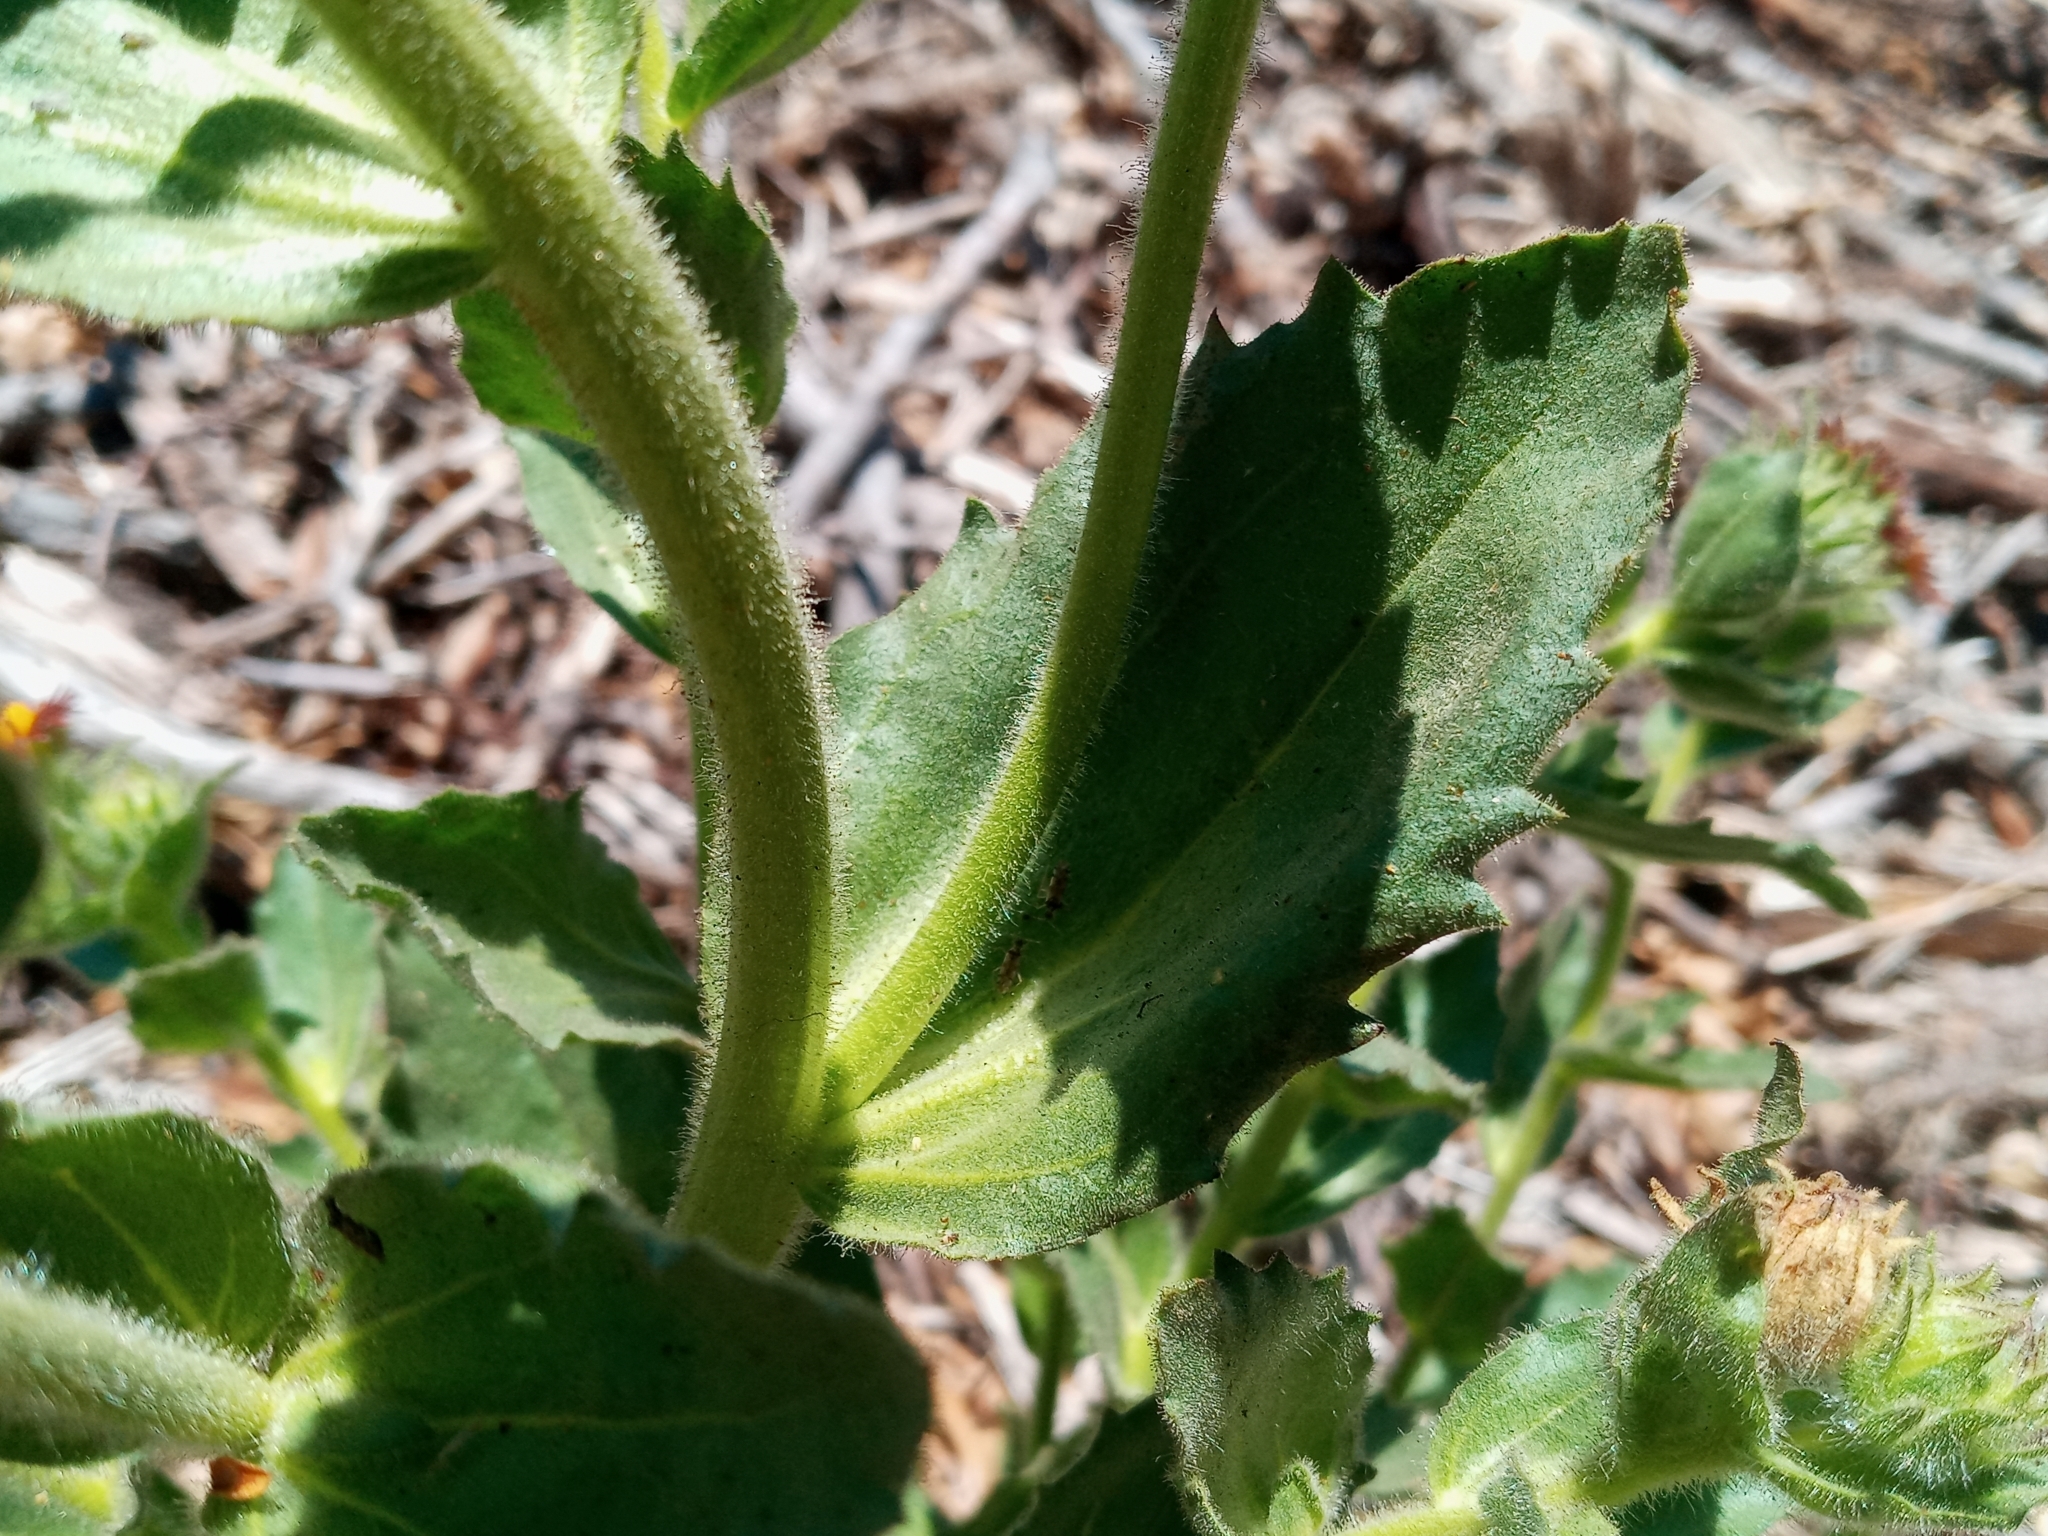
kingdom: Plantae
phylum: Tracheophyta
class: Magnoliopsida
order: Asterales
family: Asteraceae
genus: Hulsea
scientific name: Hulsea heterochroma
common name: Redray alpinegold
